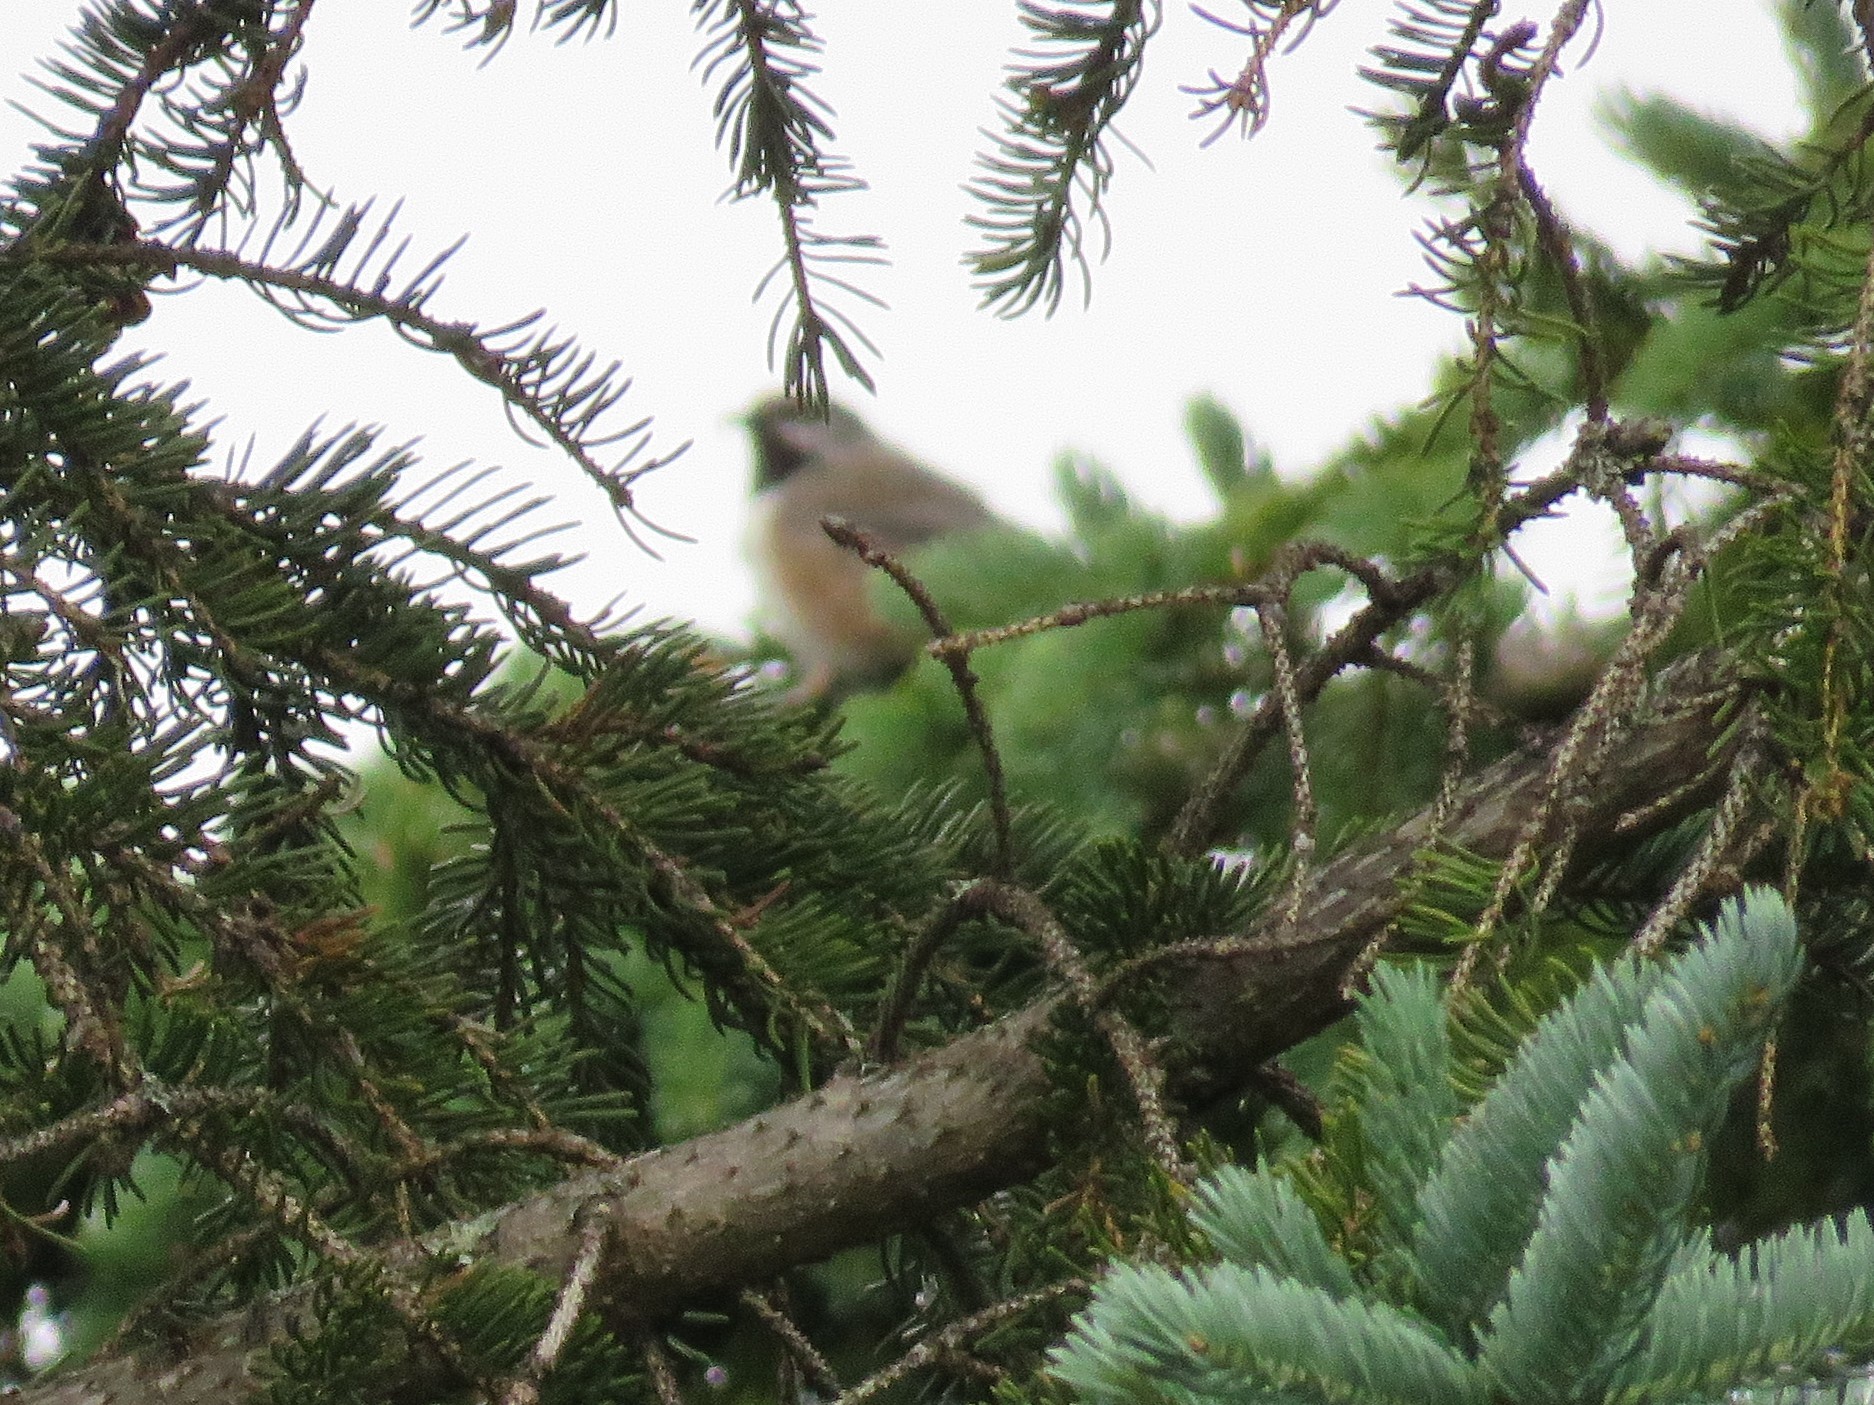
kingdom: Animalia
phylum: Chordata
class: Aves
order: Passeriformes
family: Paridae
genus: Poecile
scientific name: Poecile hudsonicus
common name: Boreal chickadee
